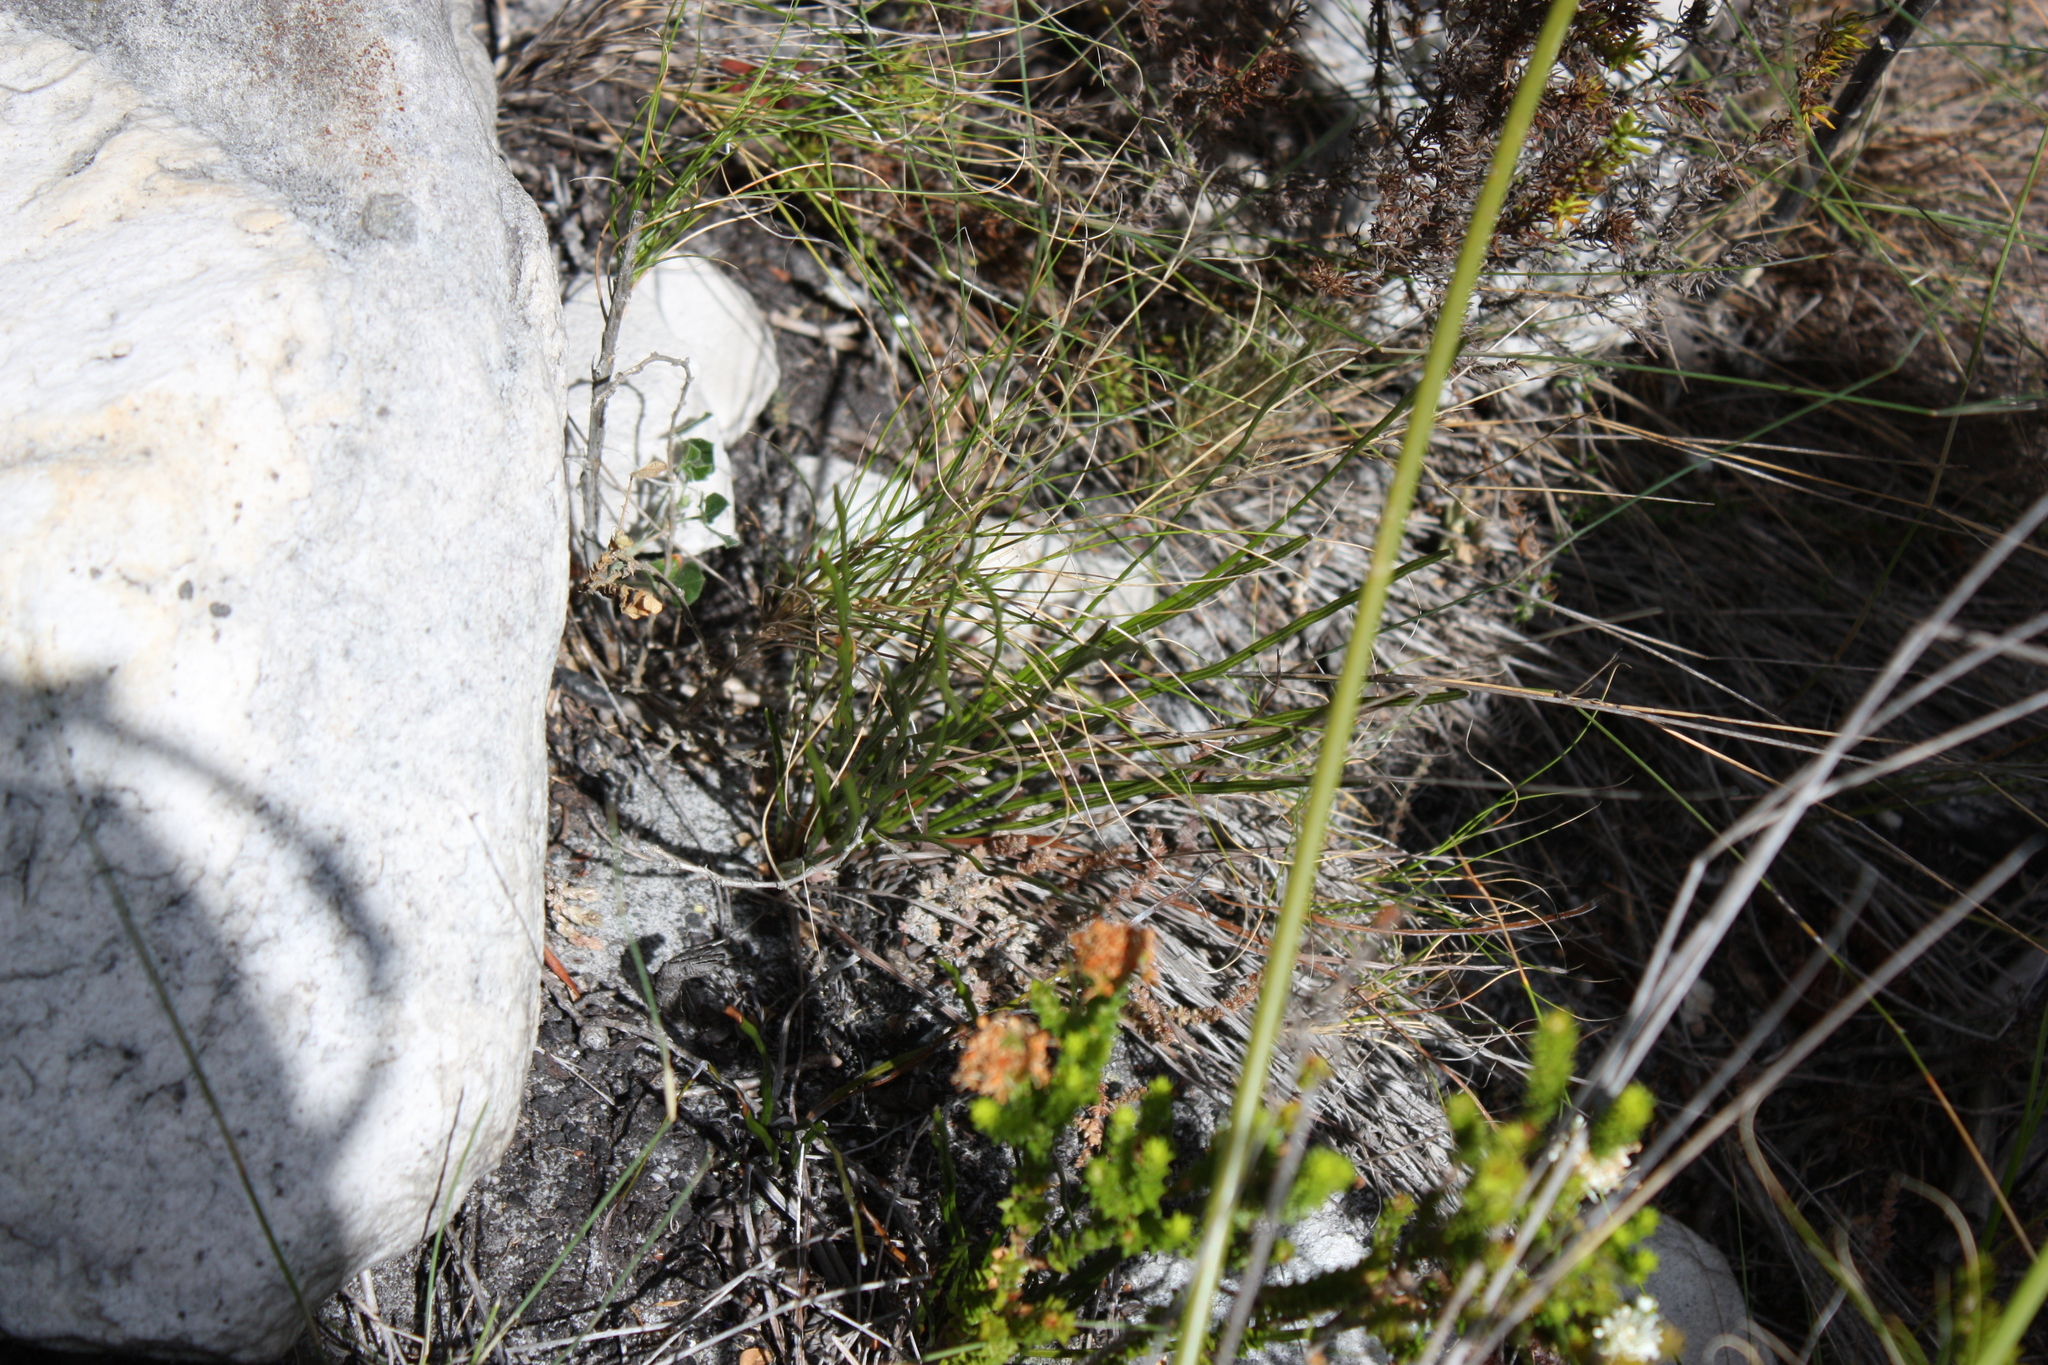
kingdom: Plantae
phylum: Tracheophyta
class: Polypodiopsida
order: Schizaeales
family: Schizaeaceae
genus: Schizaea
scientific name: Schizaea pectinata
